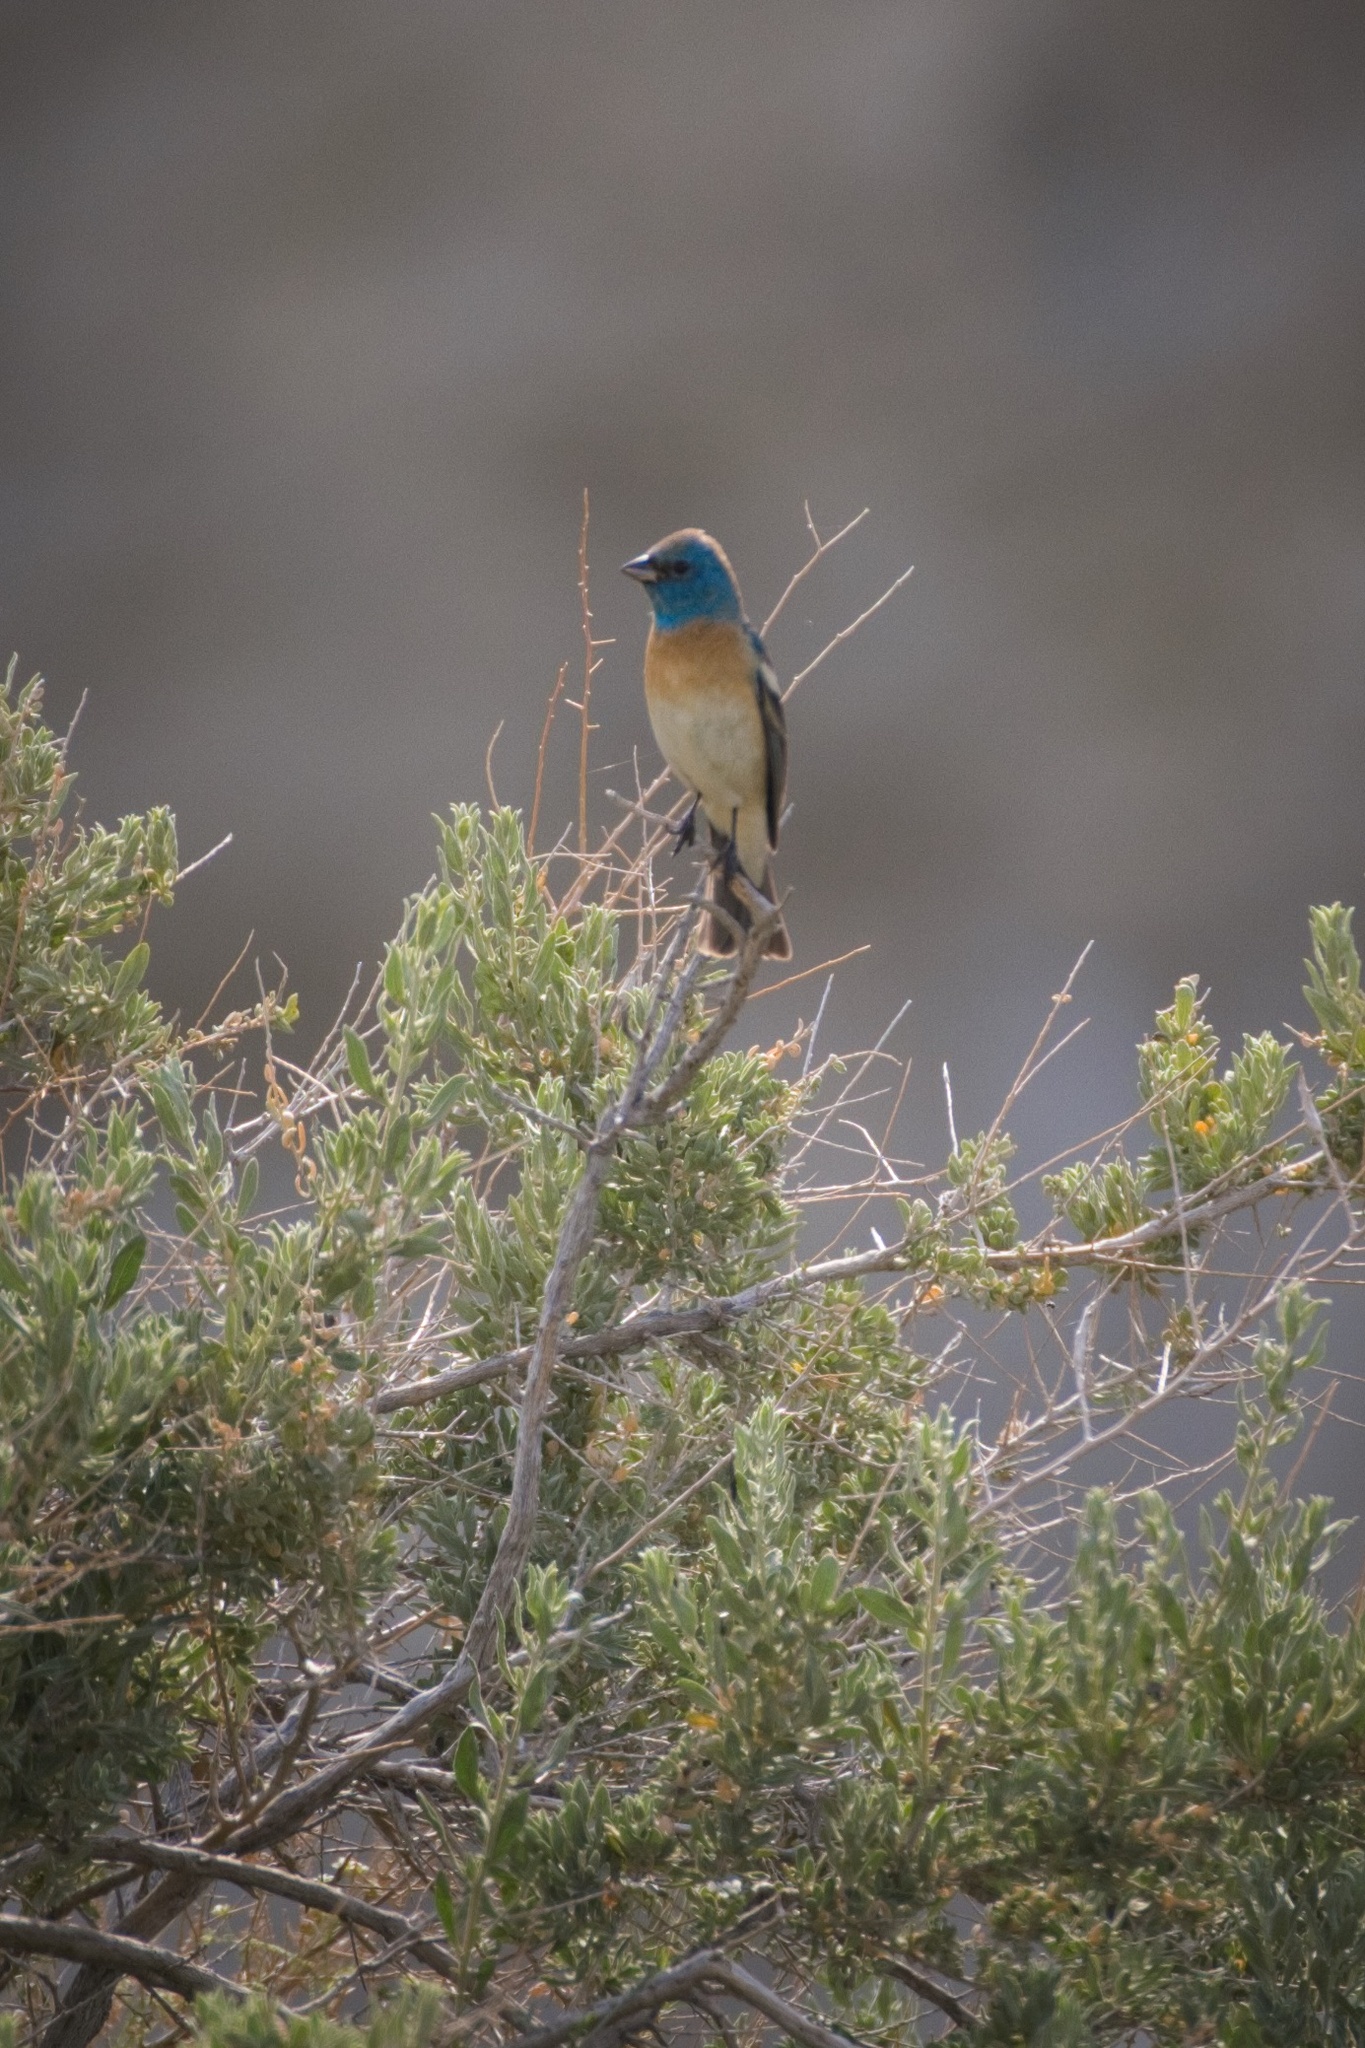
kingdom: Animalia
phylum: Chordata
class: Aves
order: Passeriformes
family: Cardinalidae
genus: Passerina
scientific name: Passerina amoena
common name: Lazuli bunting
